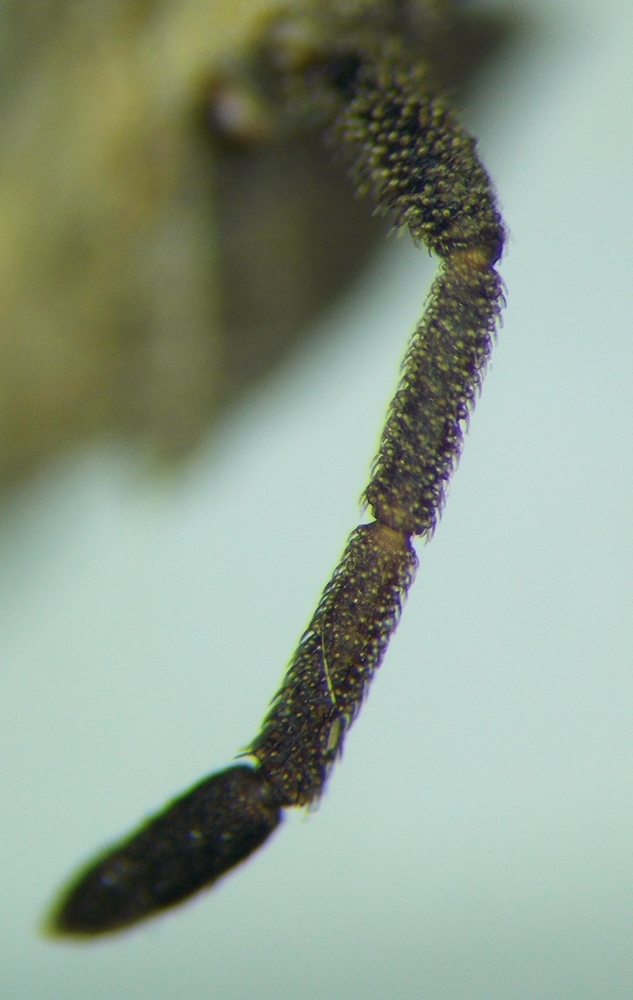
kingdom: Animalia
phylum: Arthropoda
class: Insecta
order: Hemiptera
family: Coreidae
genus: Coriomeris
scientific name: Coriomeris scabricornis
